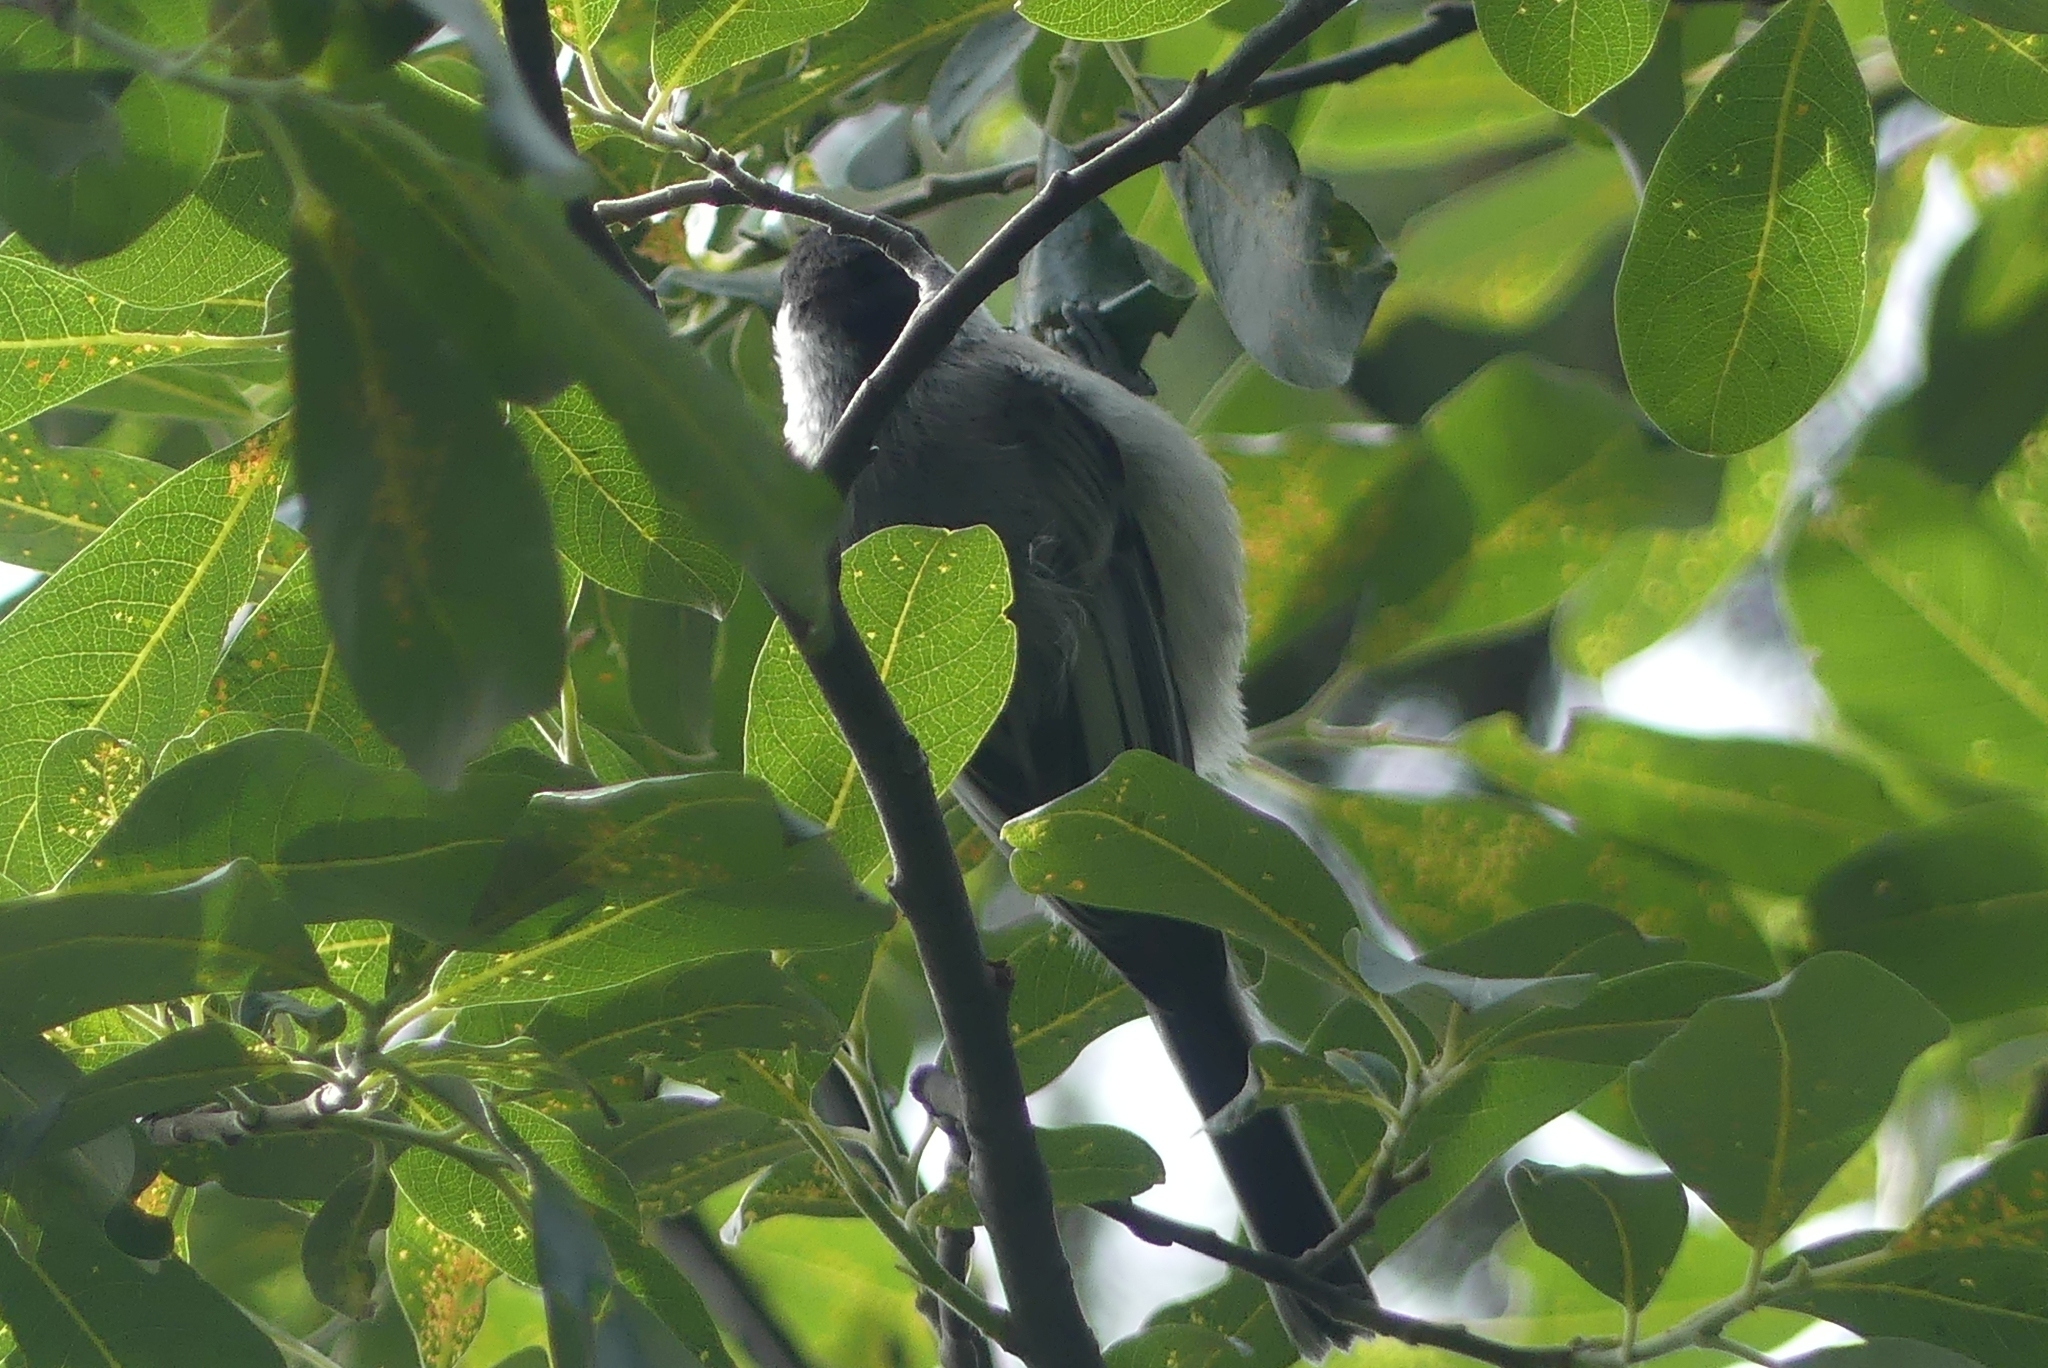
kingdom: Animalia
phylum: Chordata
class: Aves
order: Passeriformes
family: Paridae
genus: Poecile
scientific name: Poecile atricapillus
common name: Black-capped chickadee
